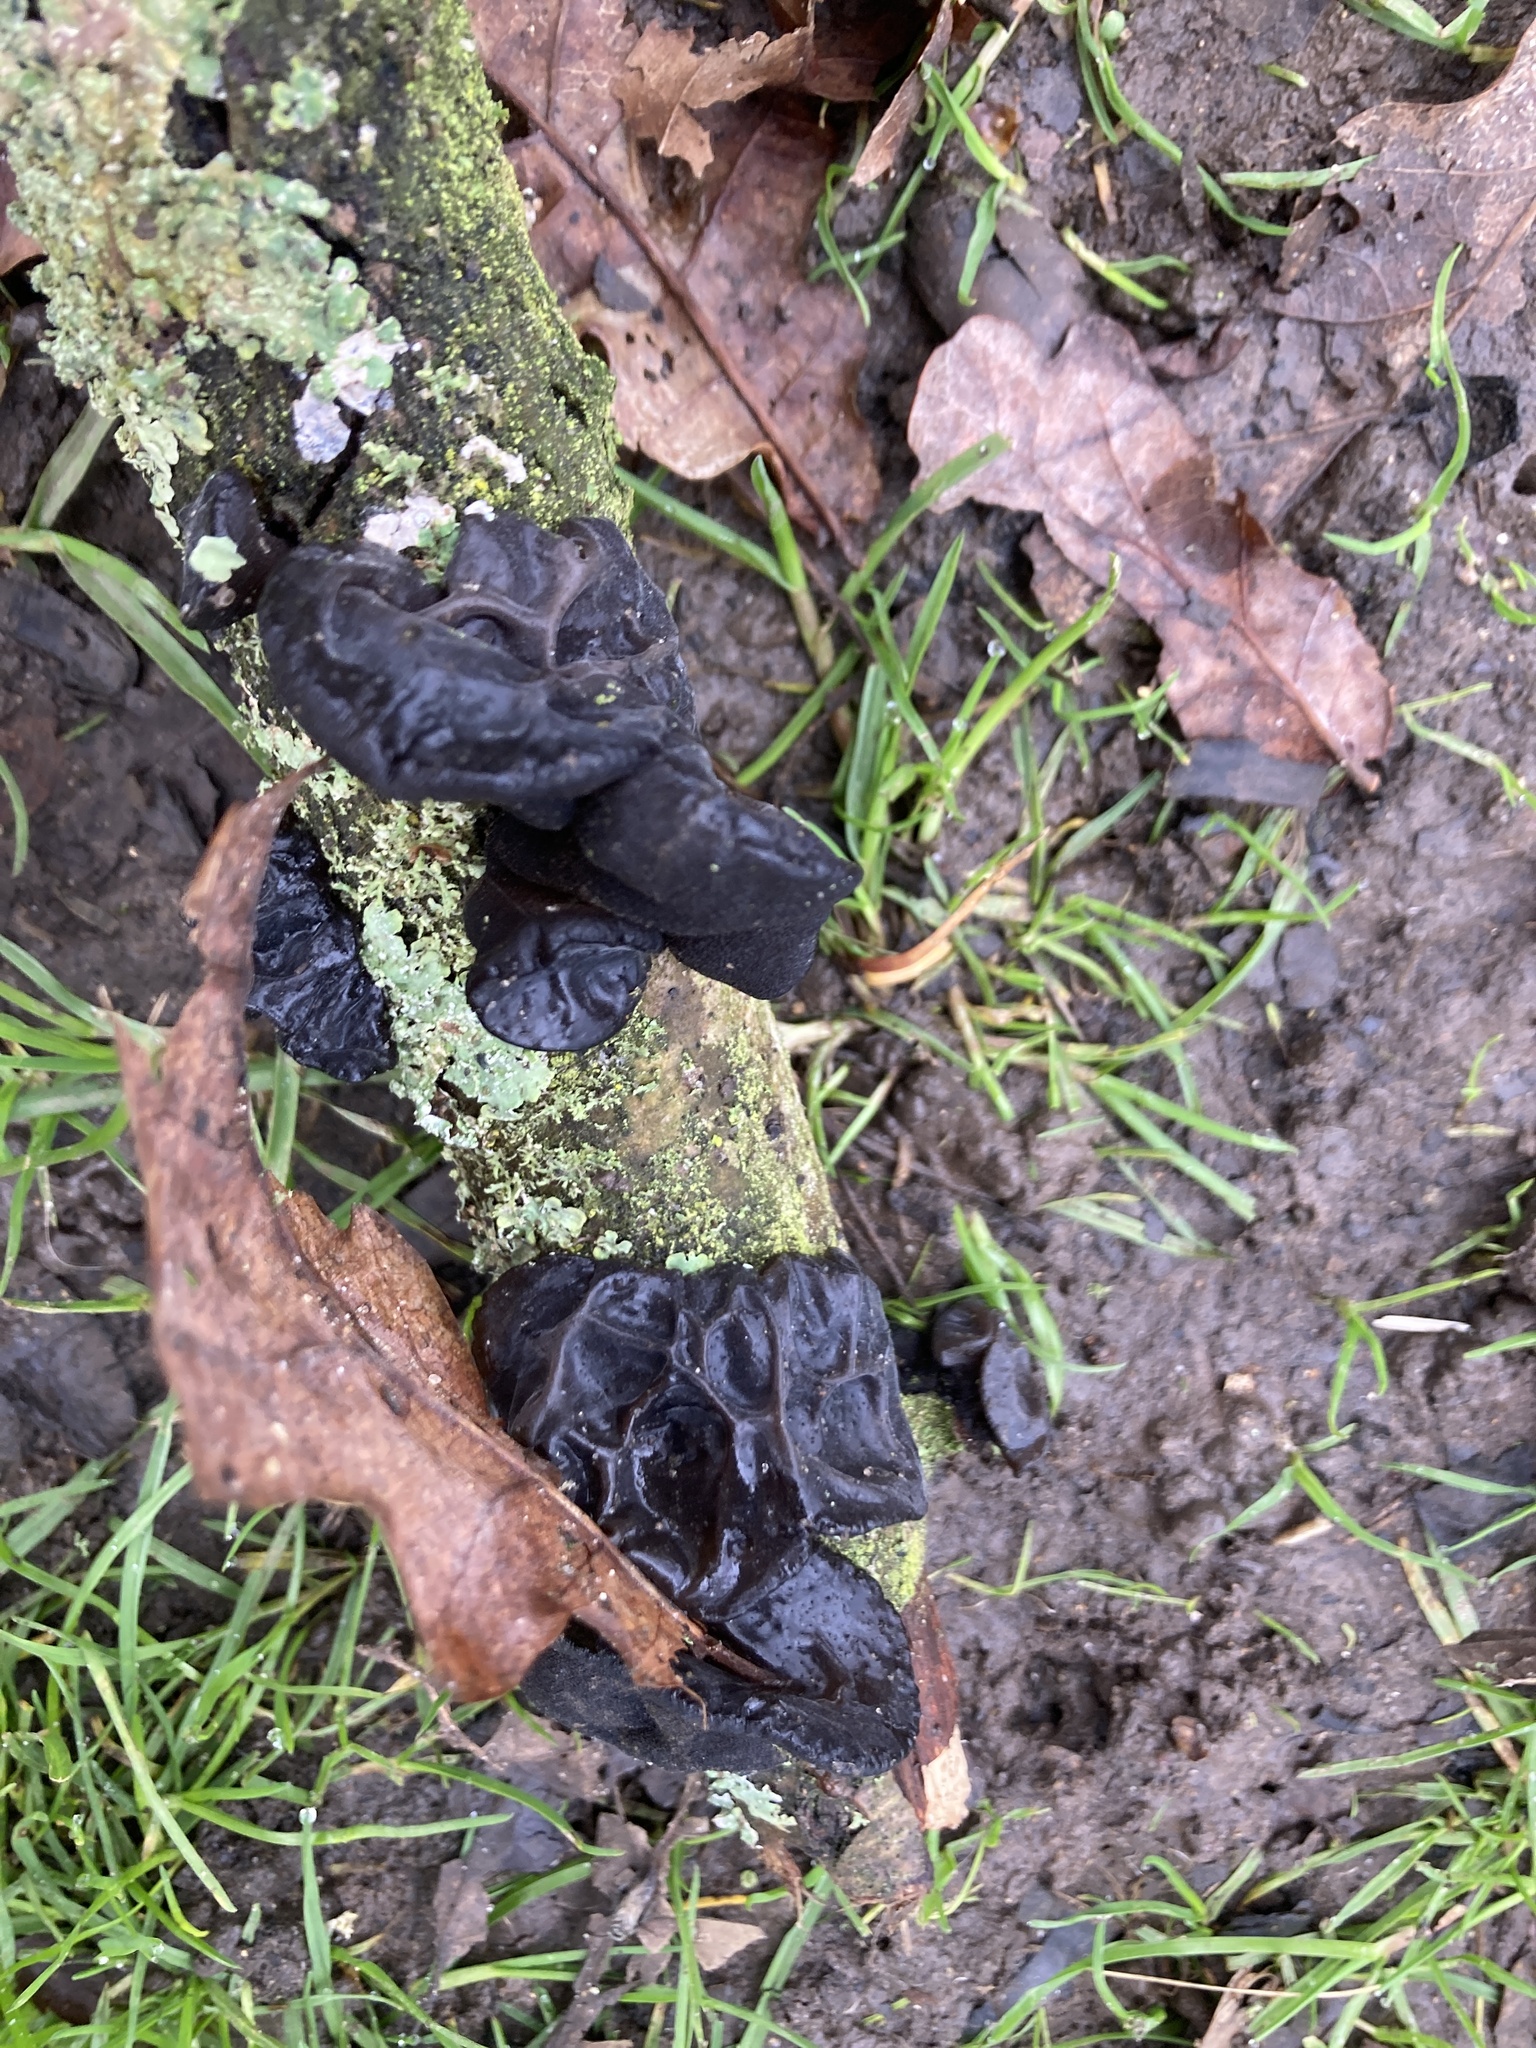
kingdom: Fungi
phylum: Basidiomycota
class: Agaricomycetes
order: Auriculariales
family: Auriculariaceae
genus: Exidia
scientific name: Exidia glandulosa
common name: Witches' butter
